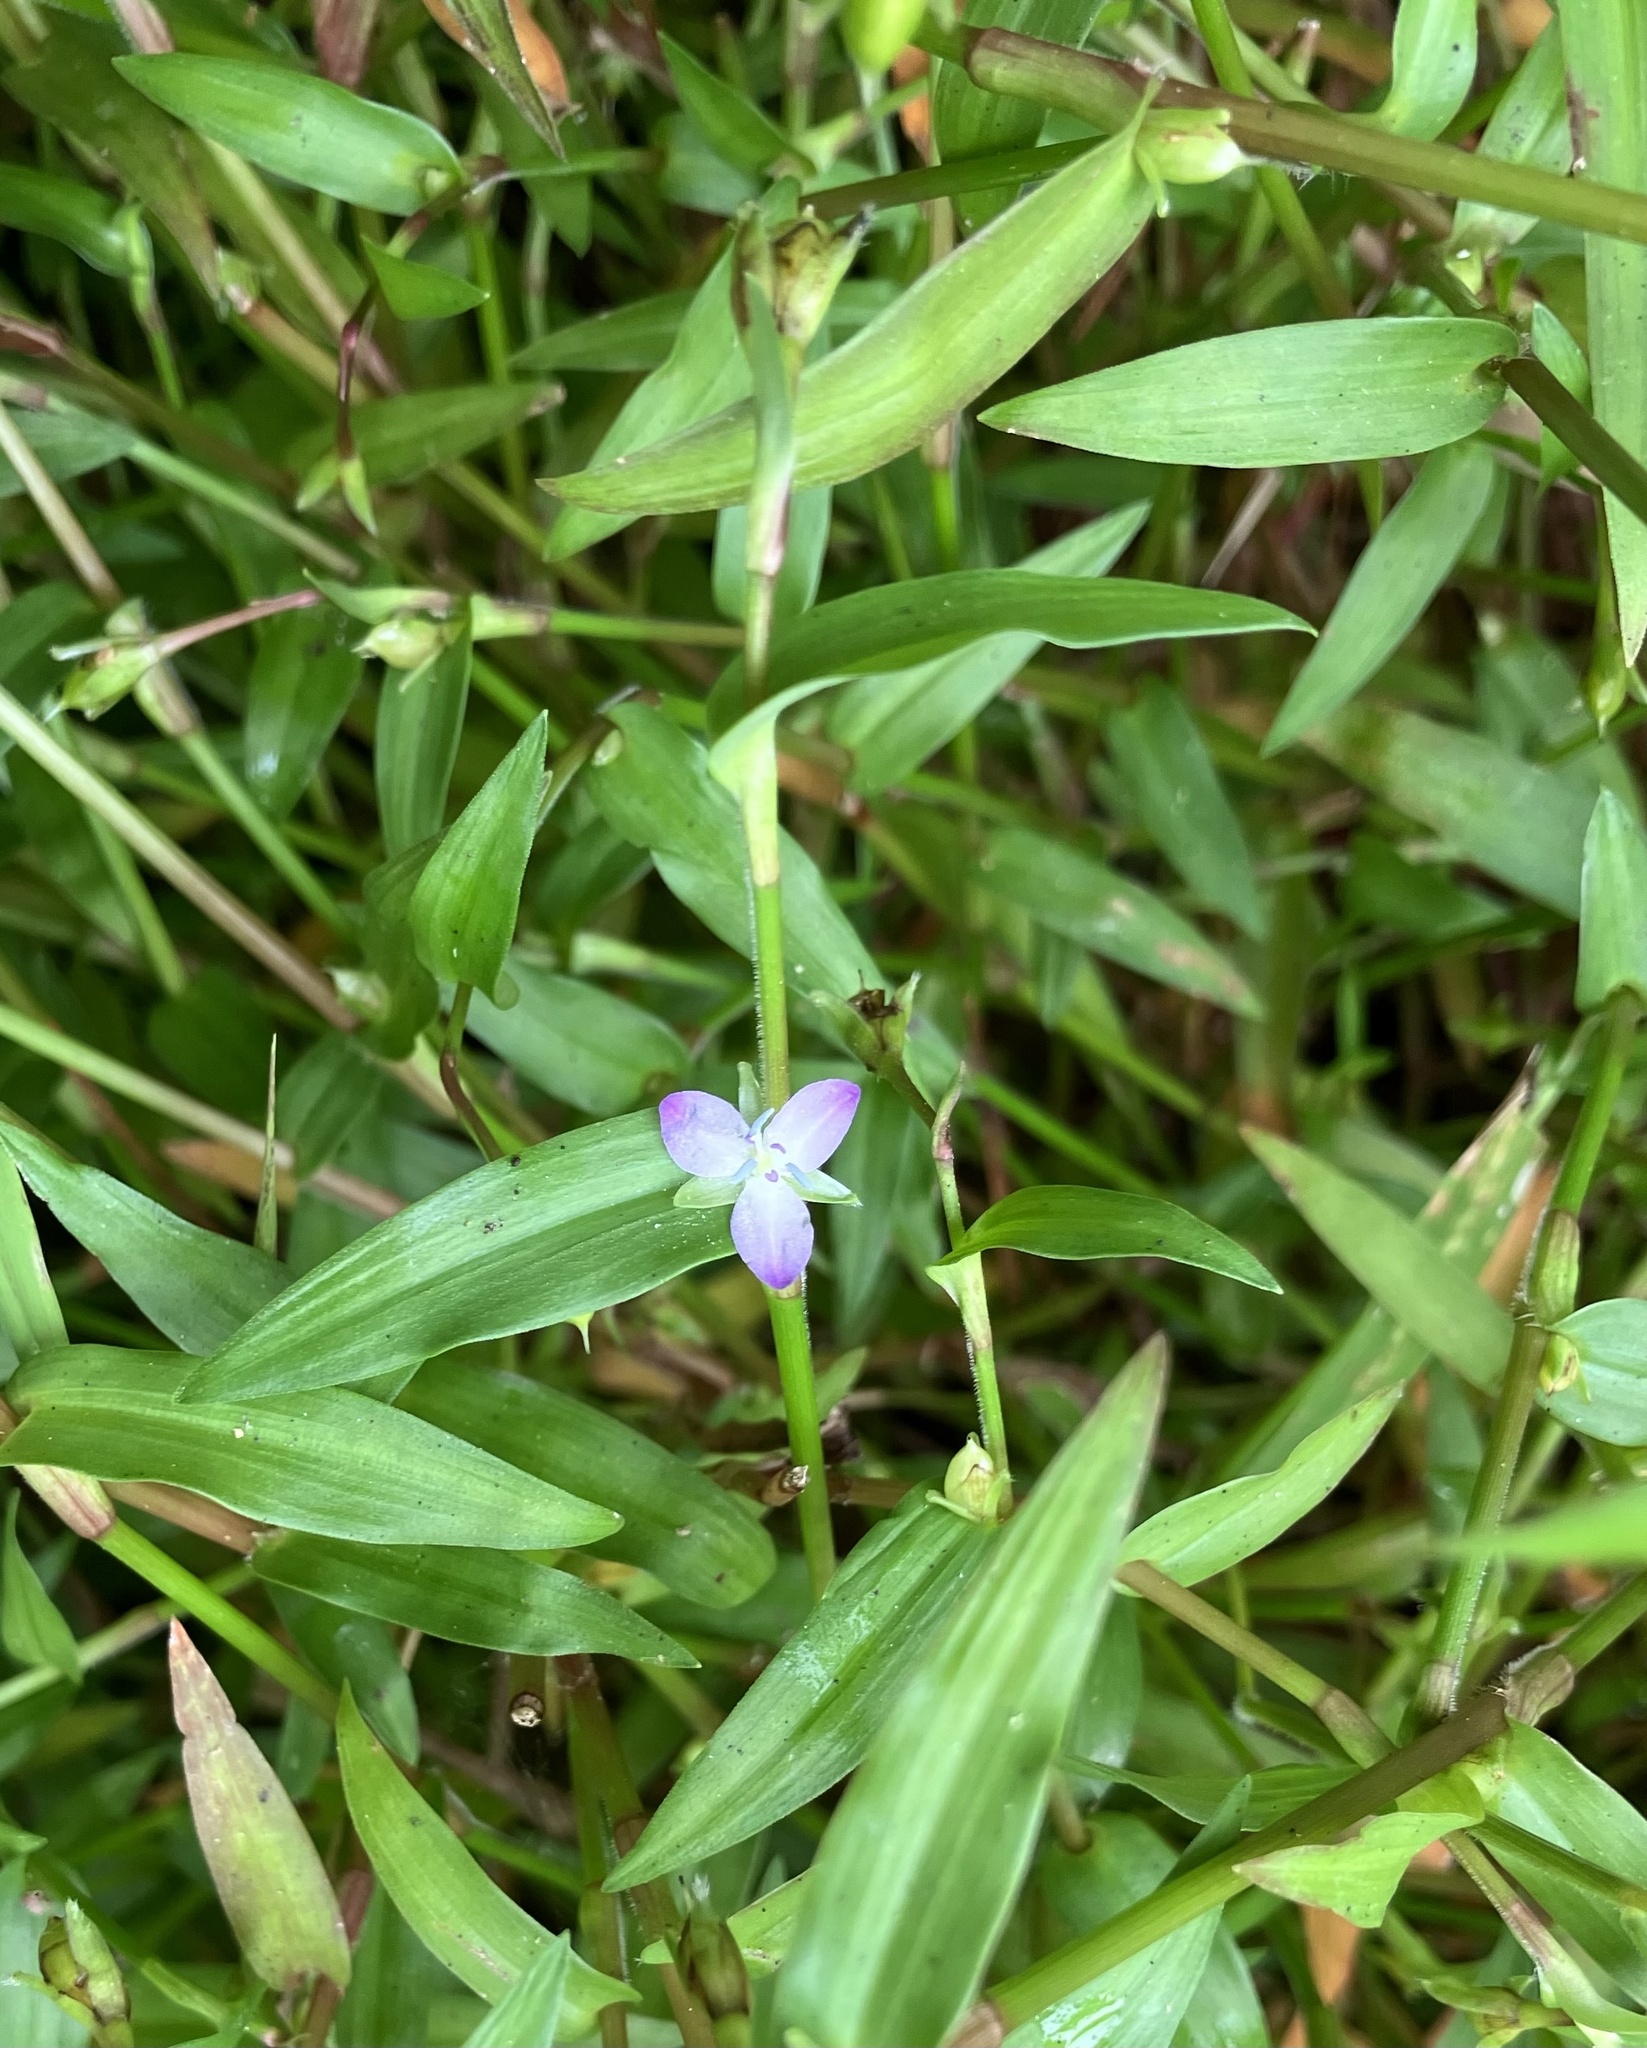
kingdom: Plantae
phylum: Tracheophyta
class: Liliopsida
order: Commelinales
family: Commelinaceae
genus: Murdannia
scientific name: Murdannia keisak
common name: Wartremoving herb
